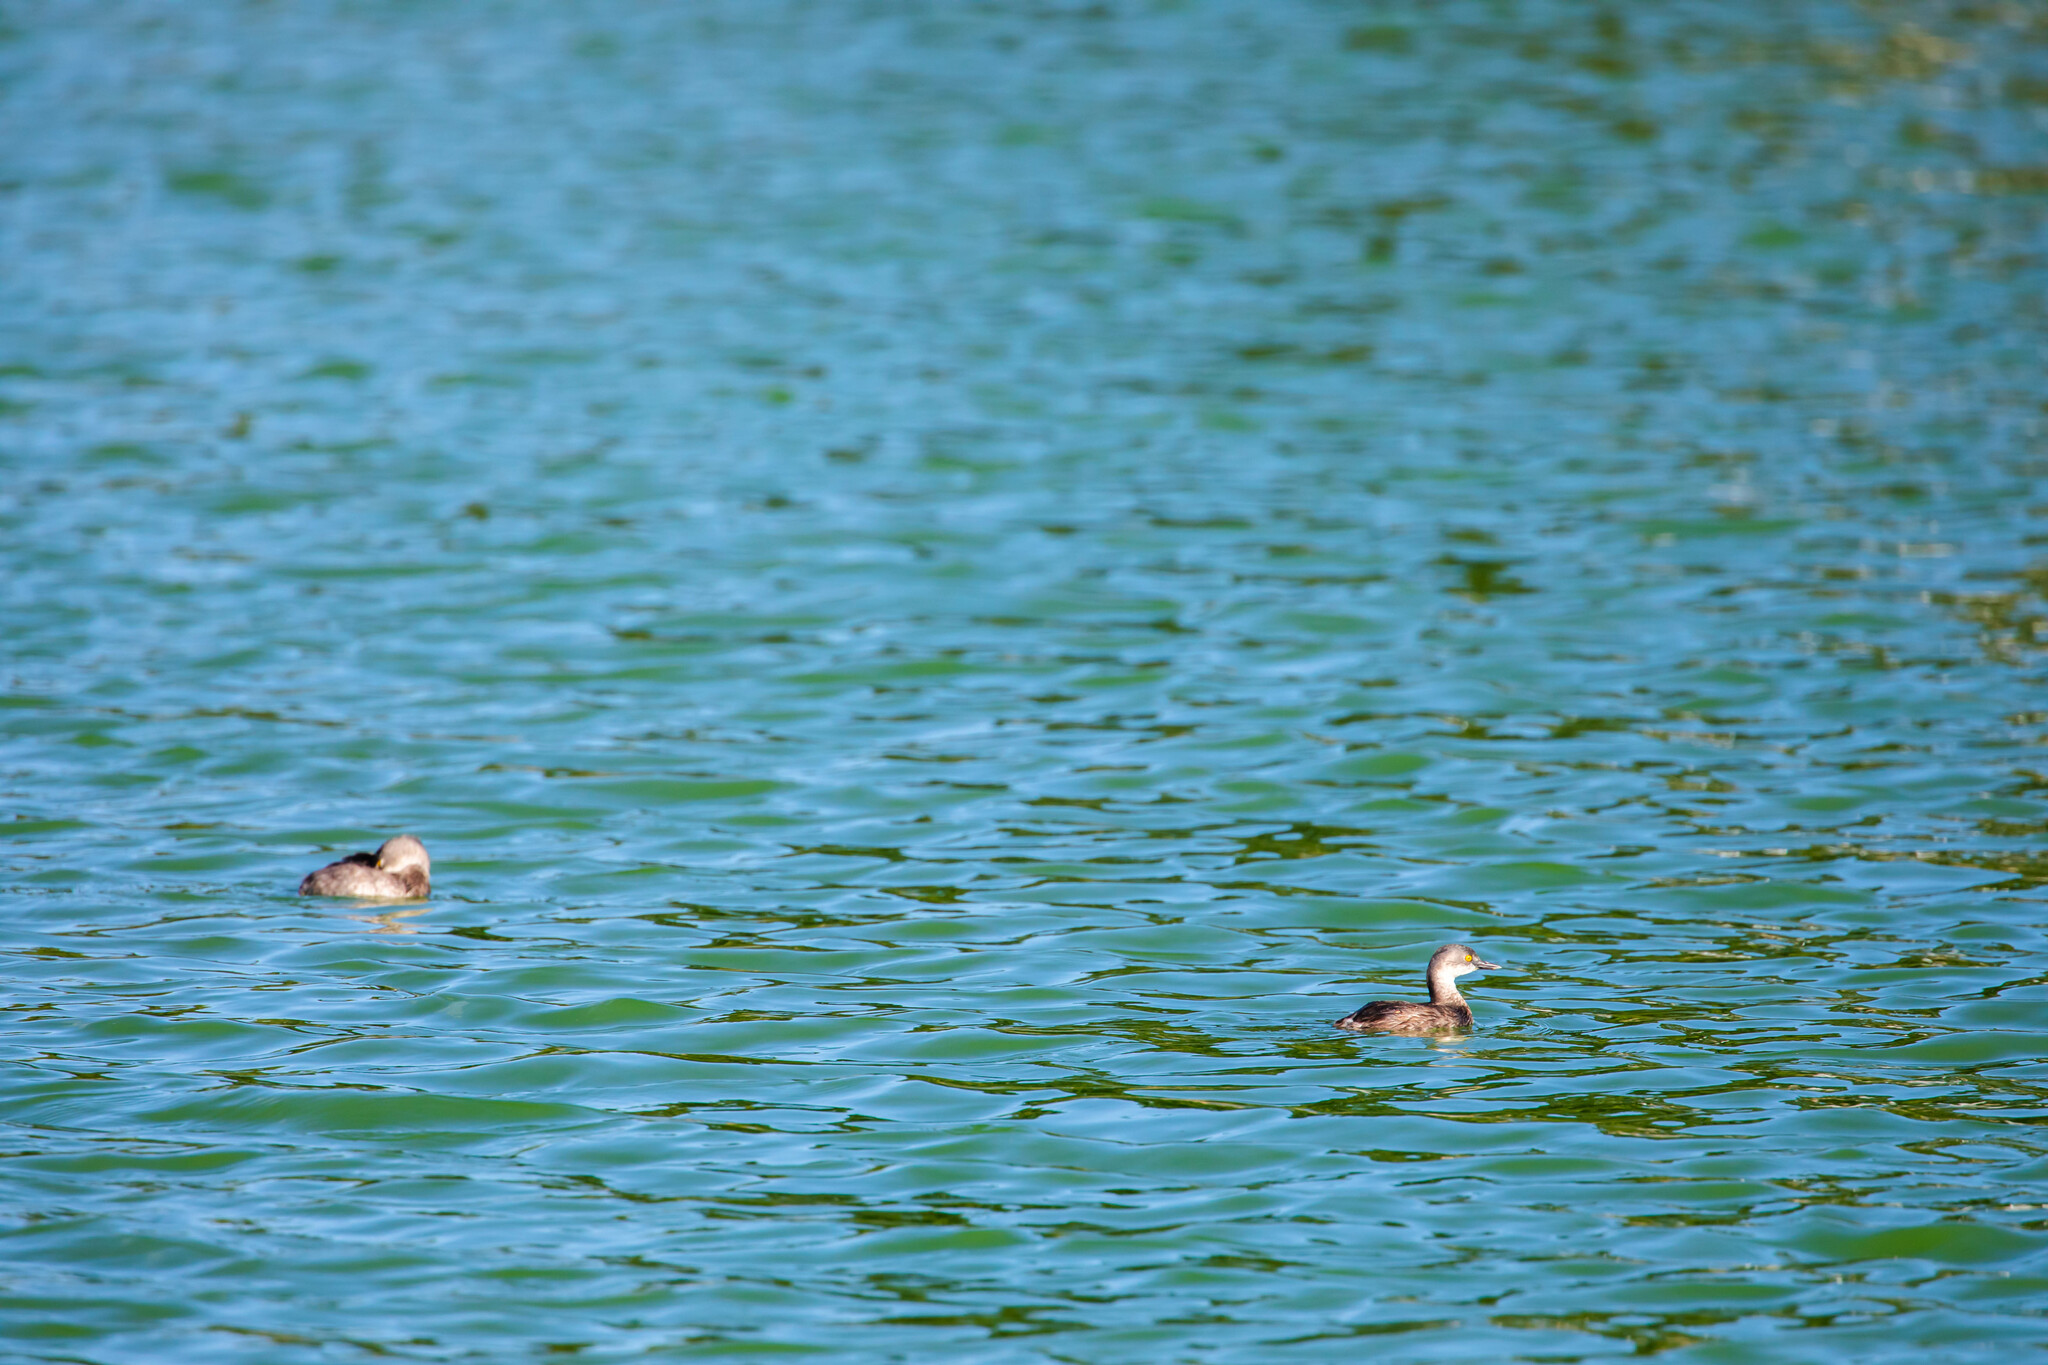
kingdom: Animalia
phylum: Chordata
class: Aves
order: Podicipediformes
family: Podicipedidae
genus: Tachybaptus
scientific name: Tachybaptus dominicus
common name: Least grebe
